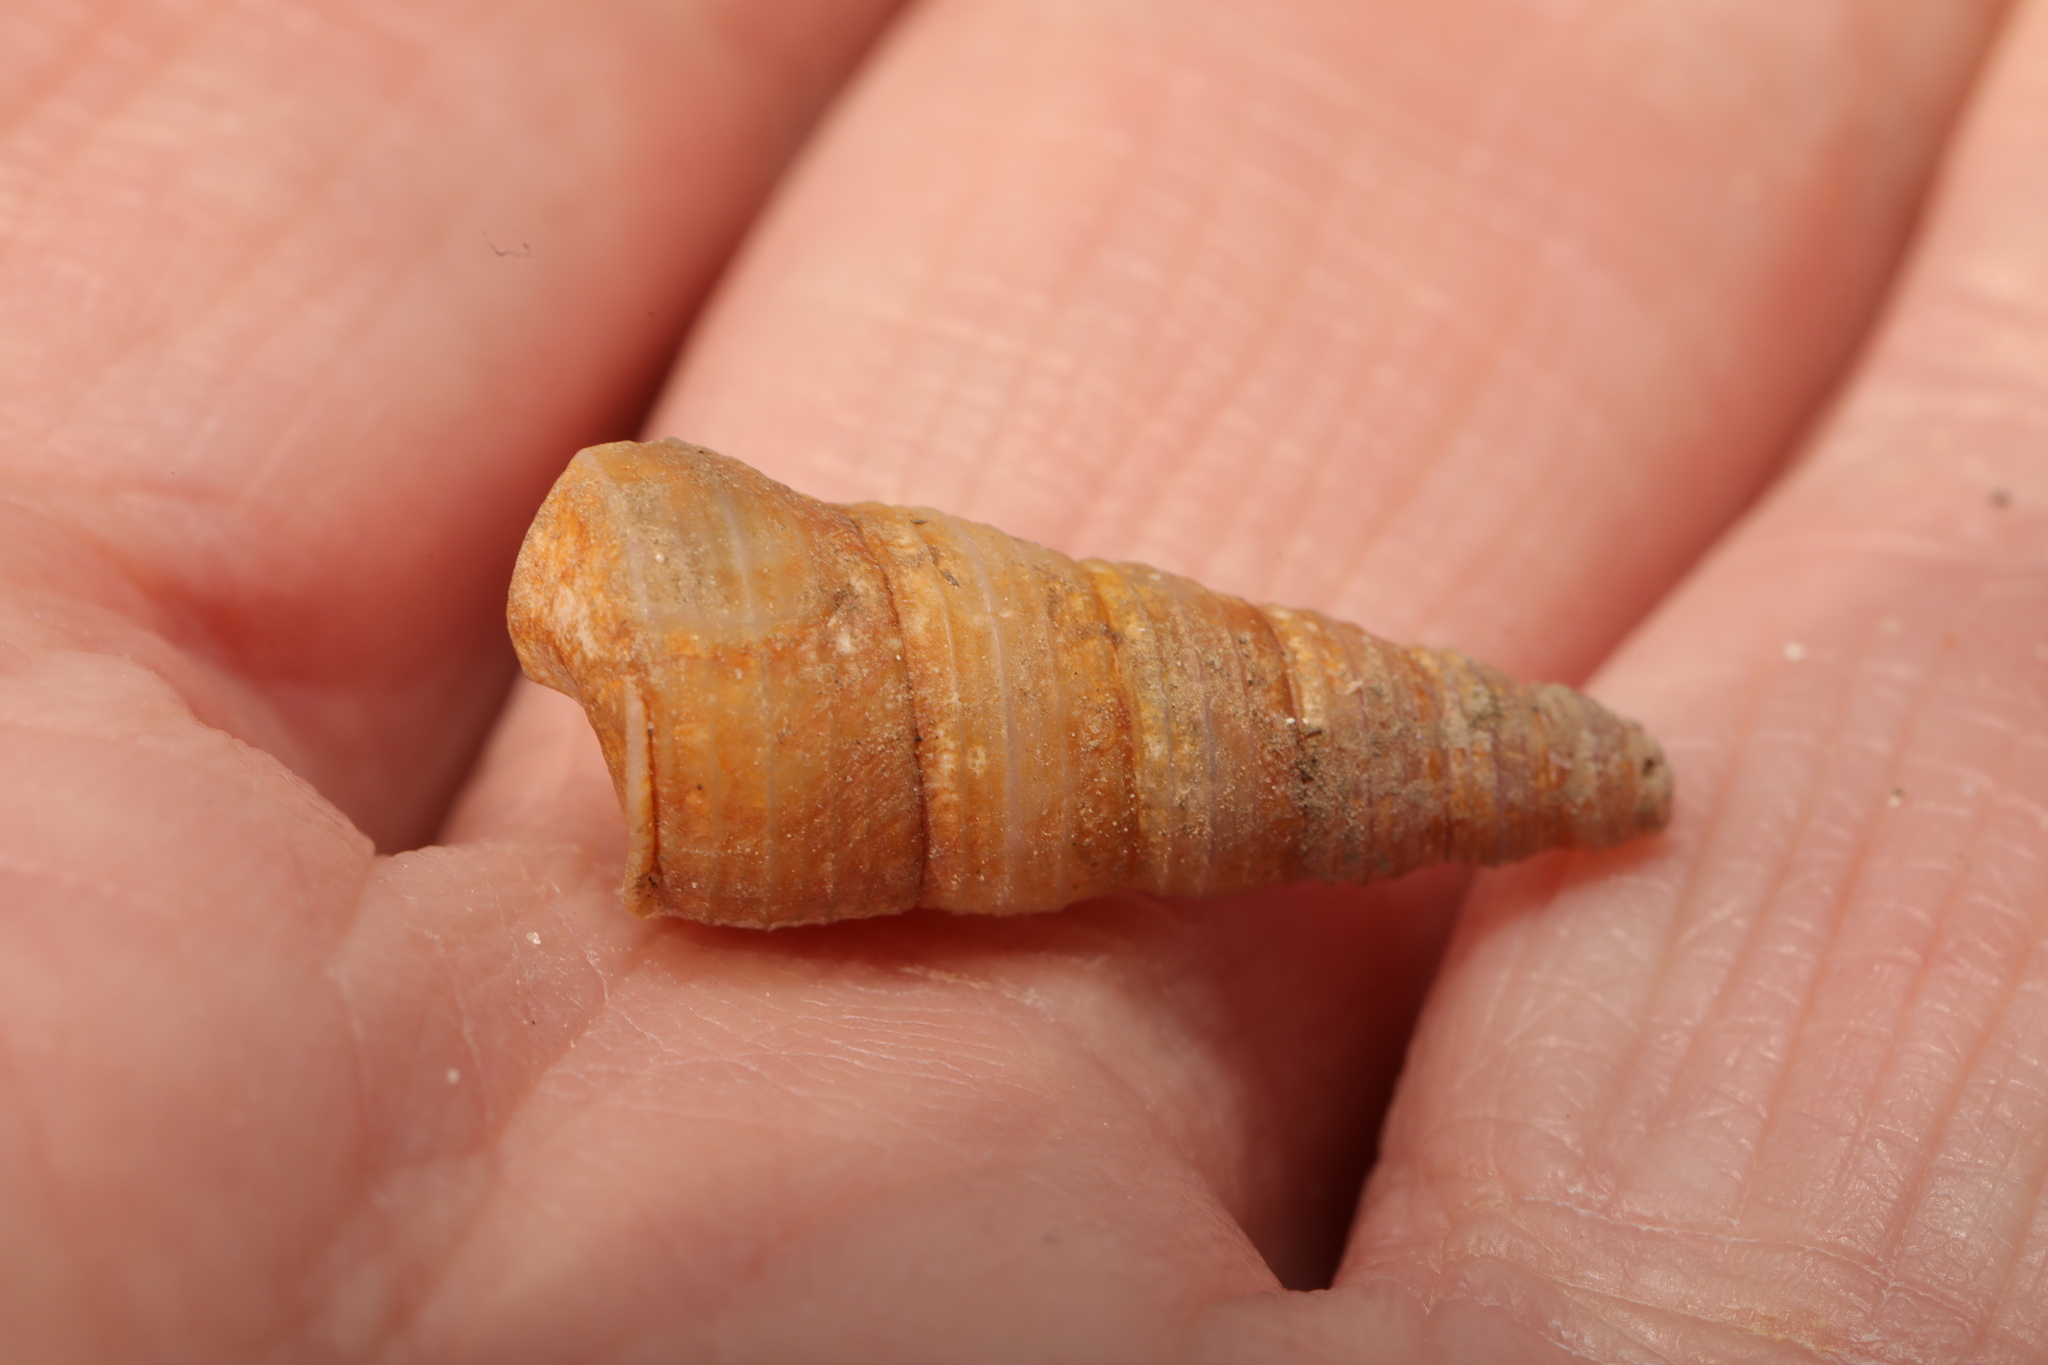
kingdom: Animalia
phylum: Mollusca
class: Gastropoda
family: Turritellidae
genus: Turritellinella
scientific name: Turritellinella tricarinata
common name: Auger shell
